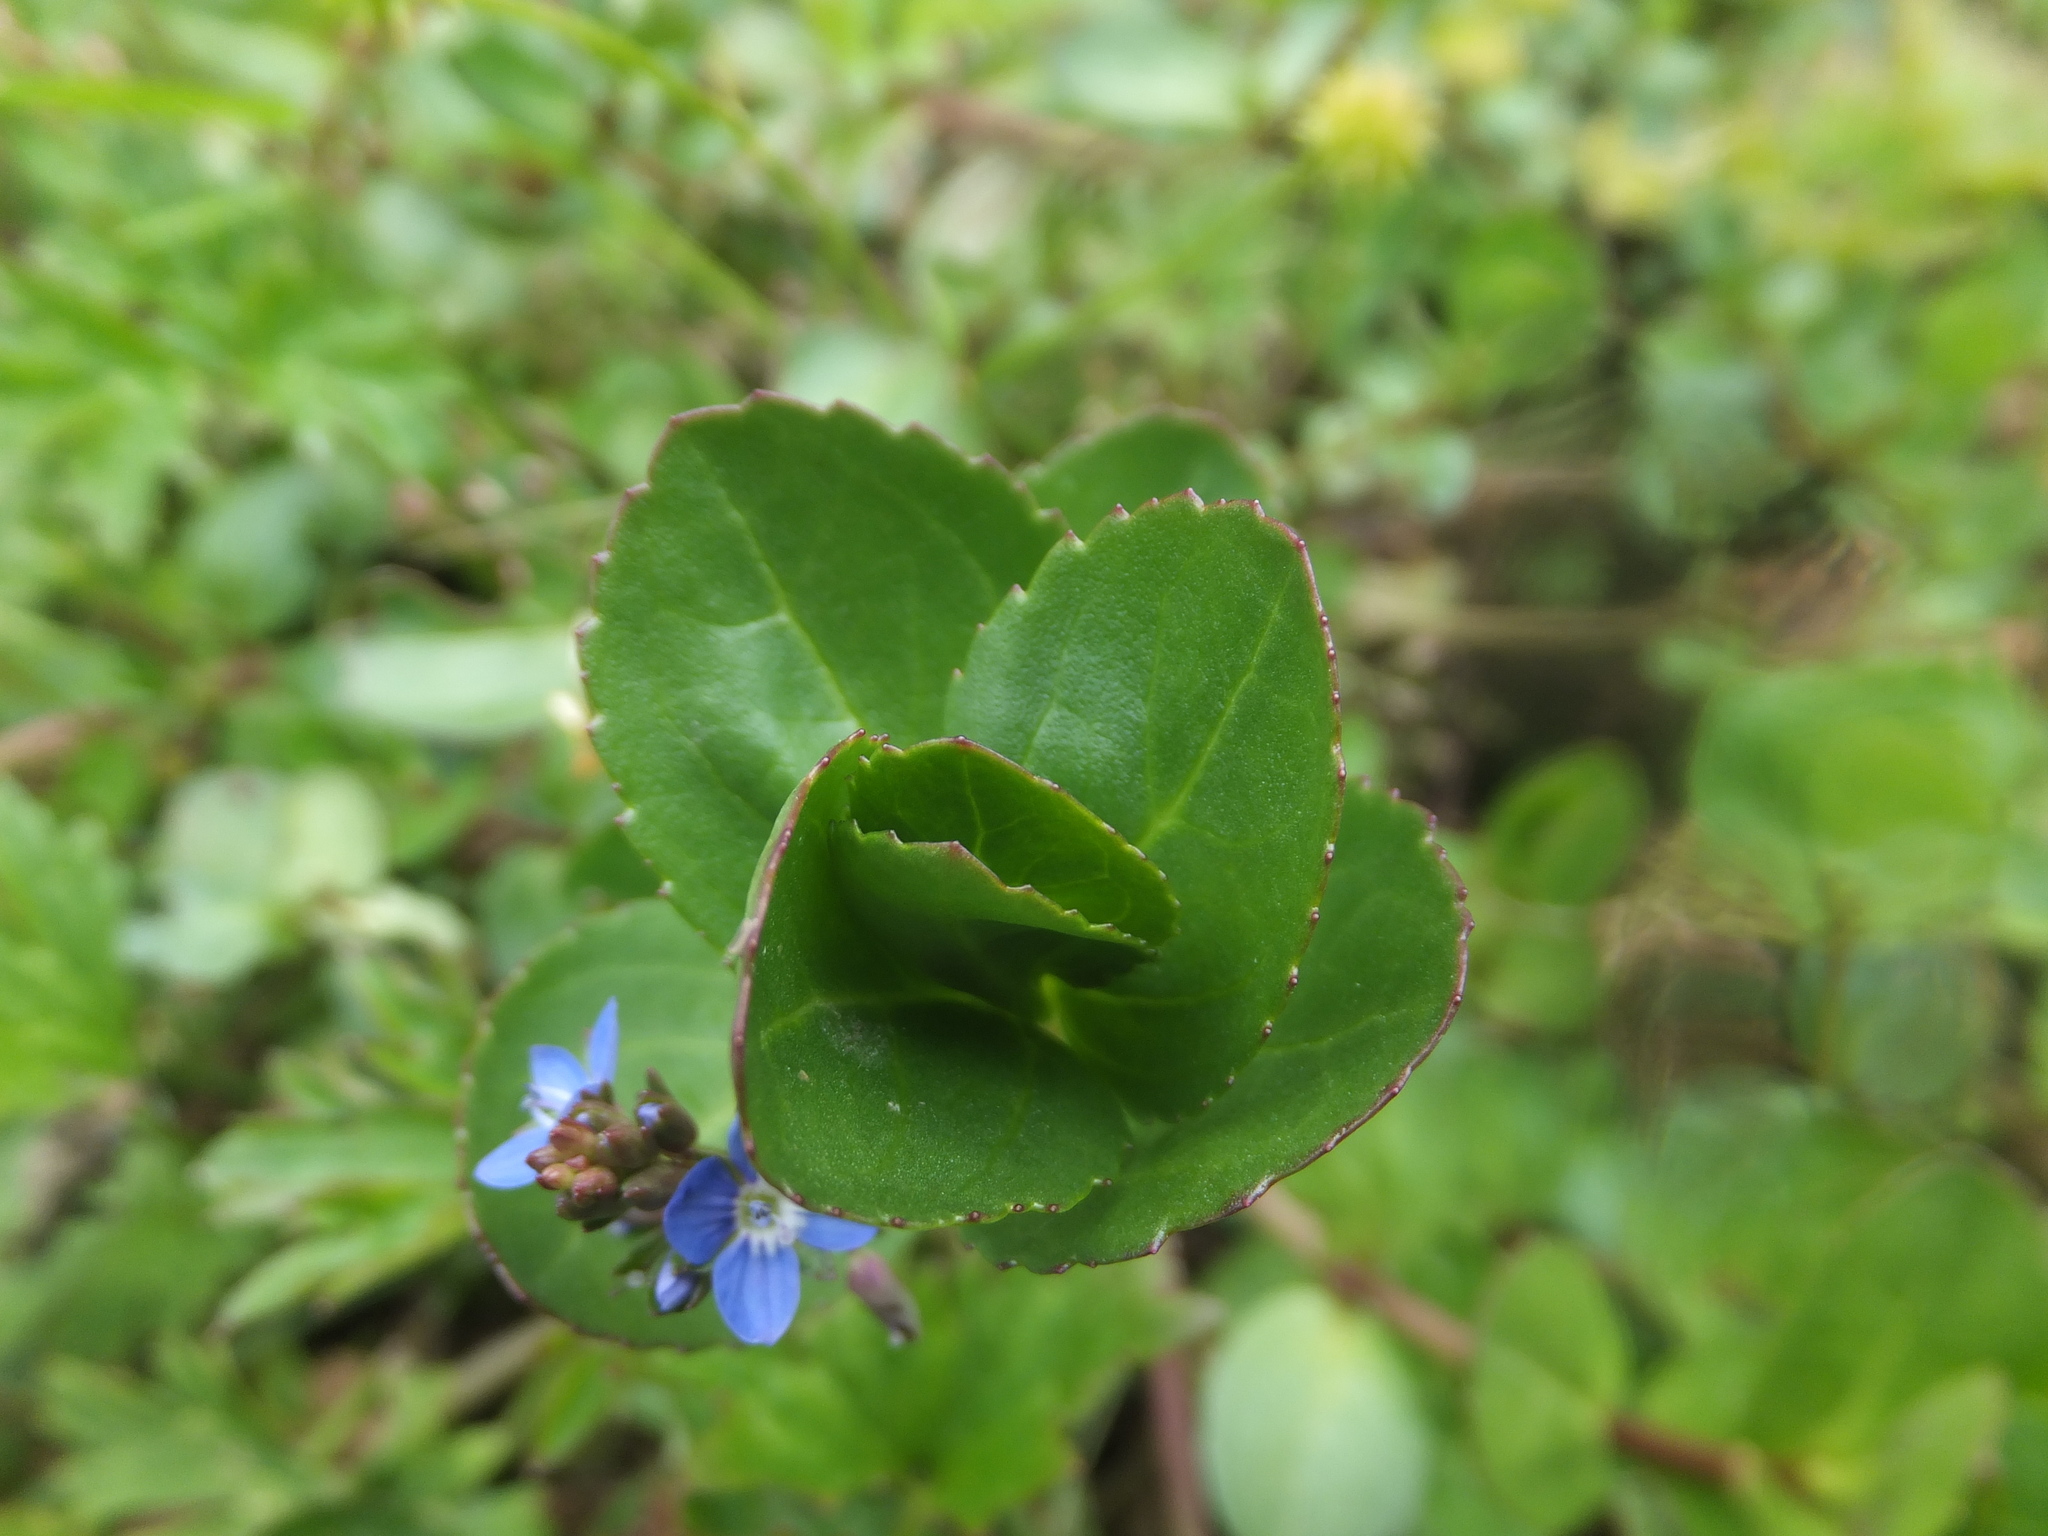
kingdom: Plantae
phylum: Tracheophyta
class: Magnoliopsida
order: Lamiales
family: Plantaginaceae
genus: Veronica
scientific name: Veronica beccabunga
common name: Brooklime
